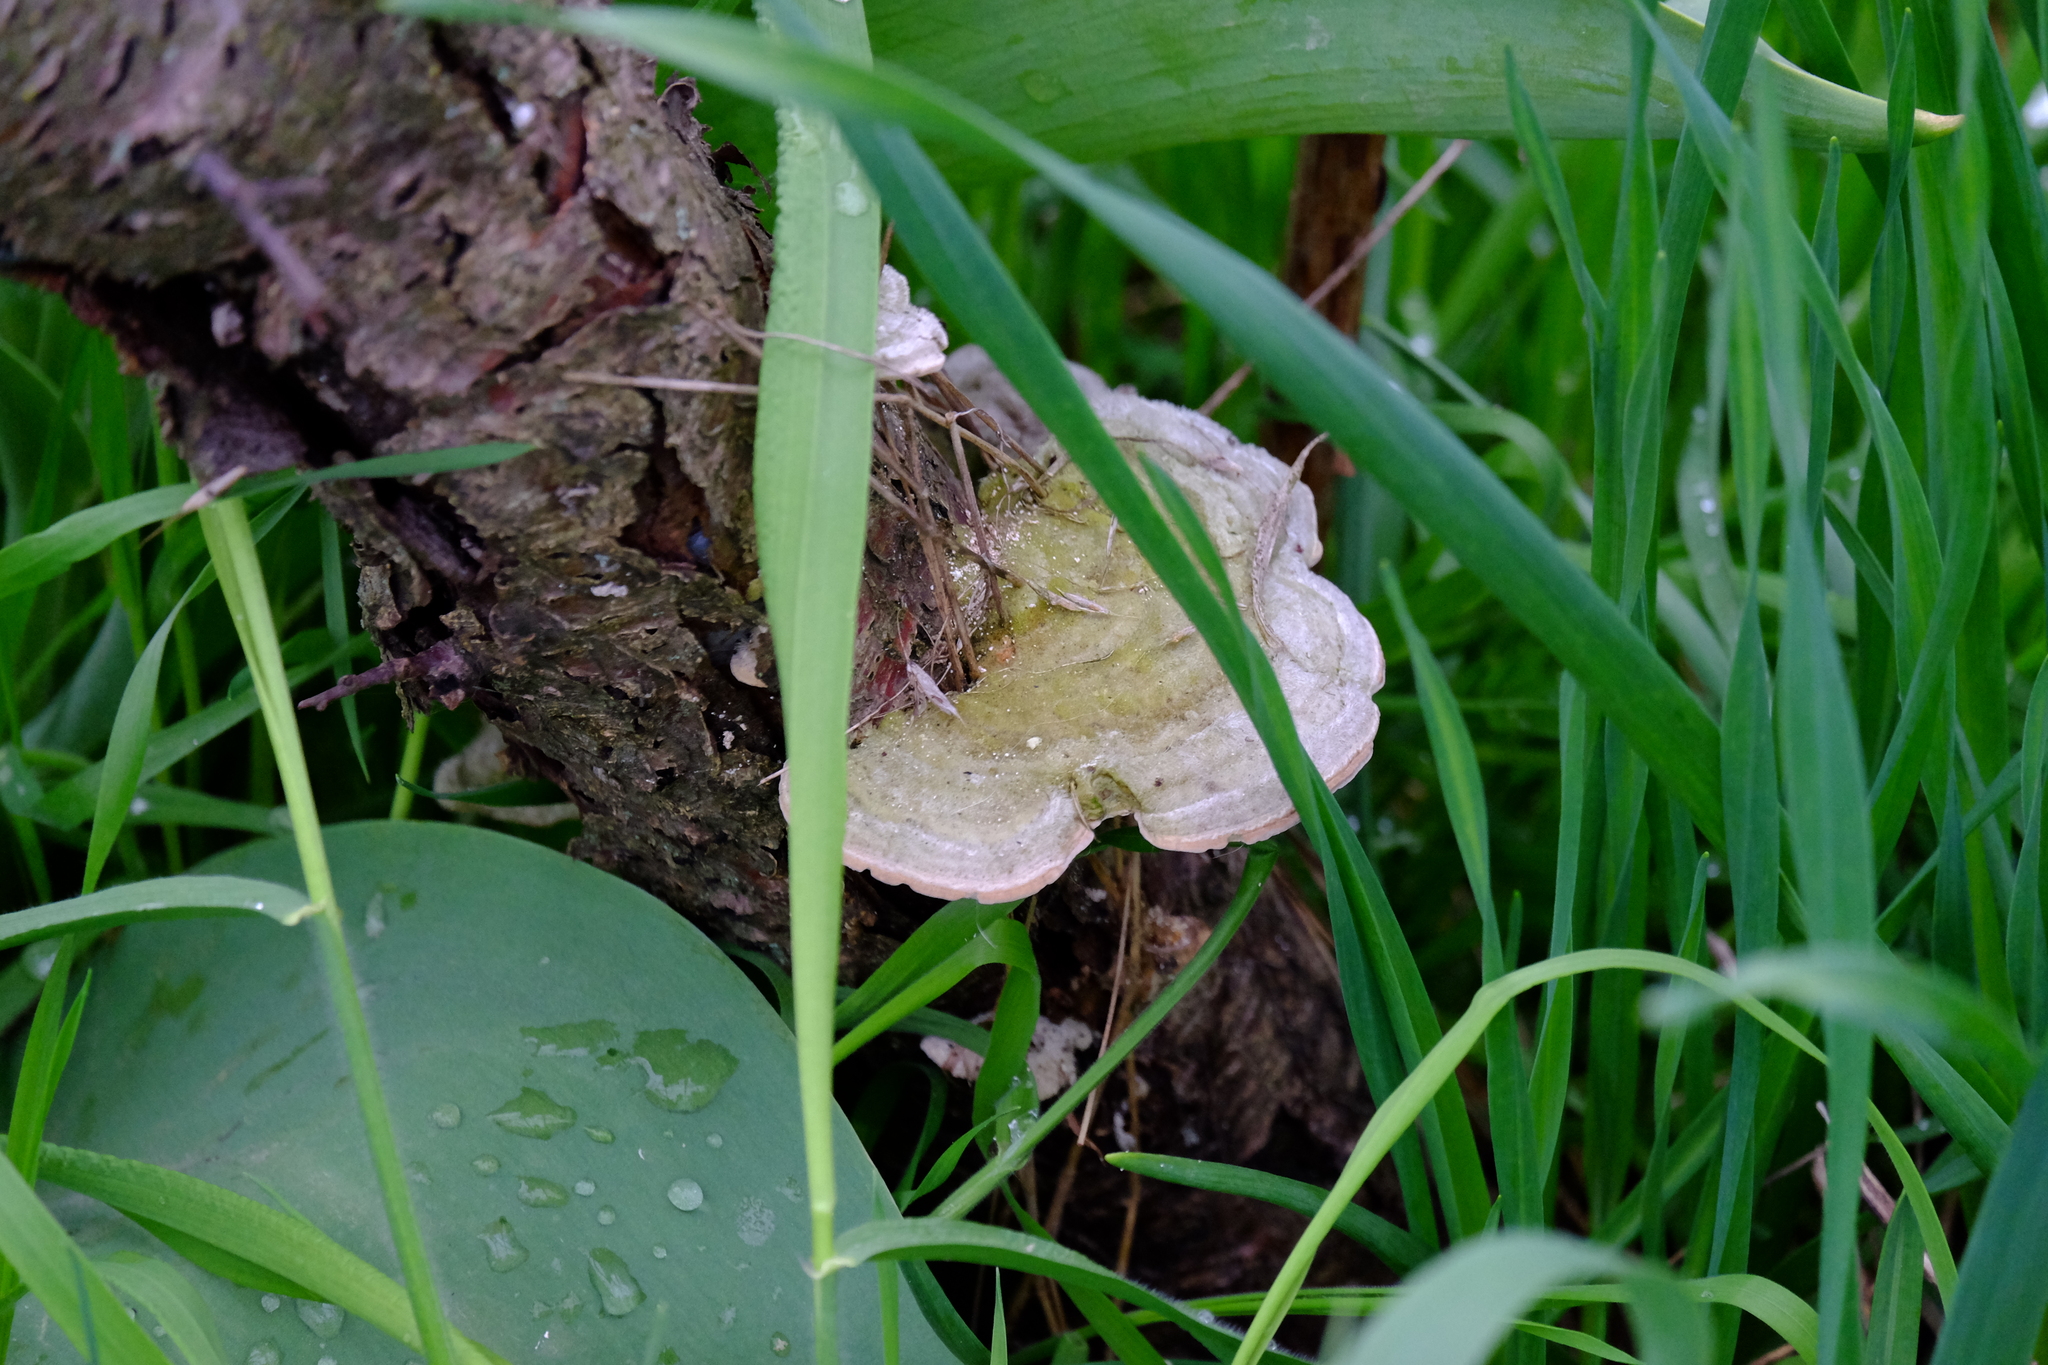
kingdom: Fungi
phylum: Basidiomycota
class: Agaricomycetes
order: Polyporales
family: Polyporaceae
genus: Trametes
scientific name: Trametes hirsuta
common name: Hairy bracket
